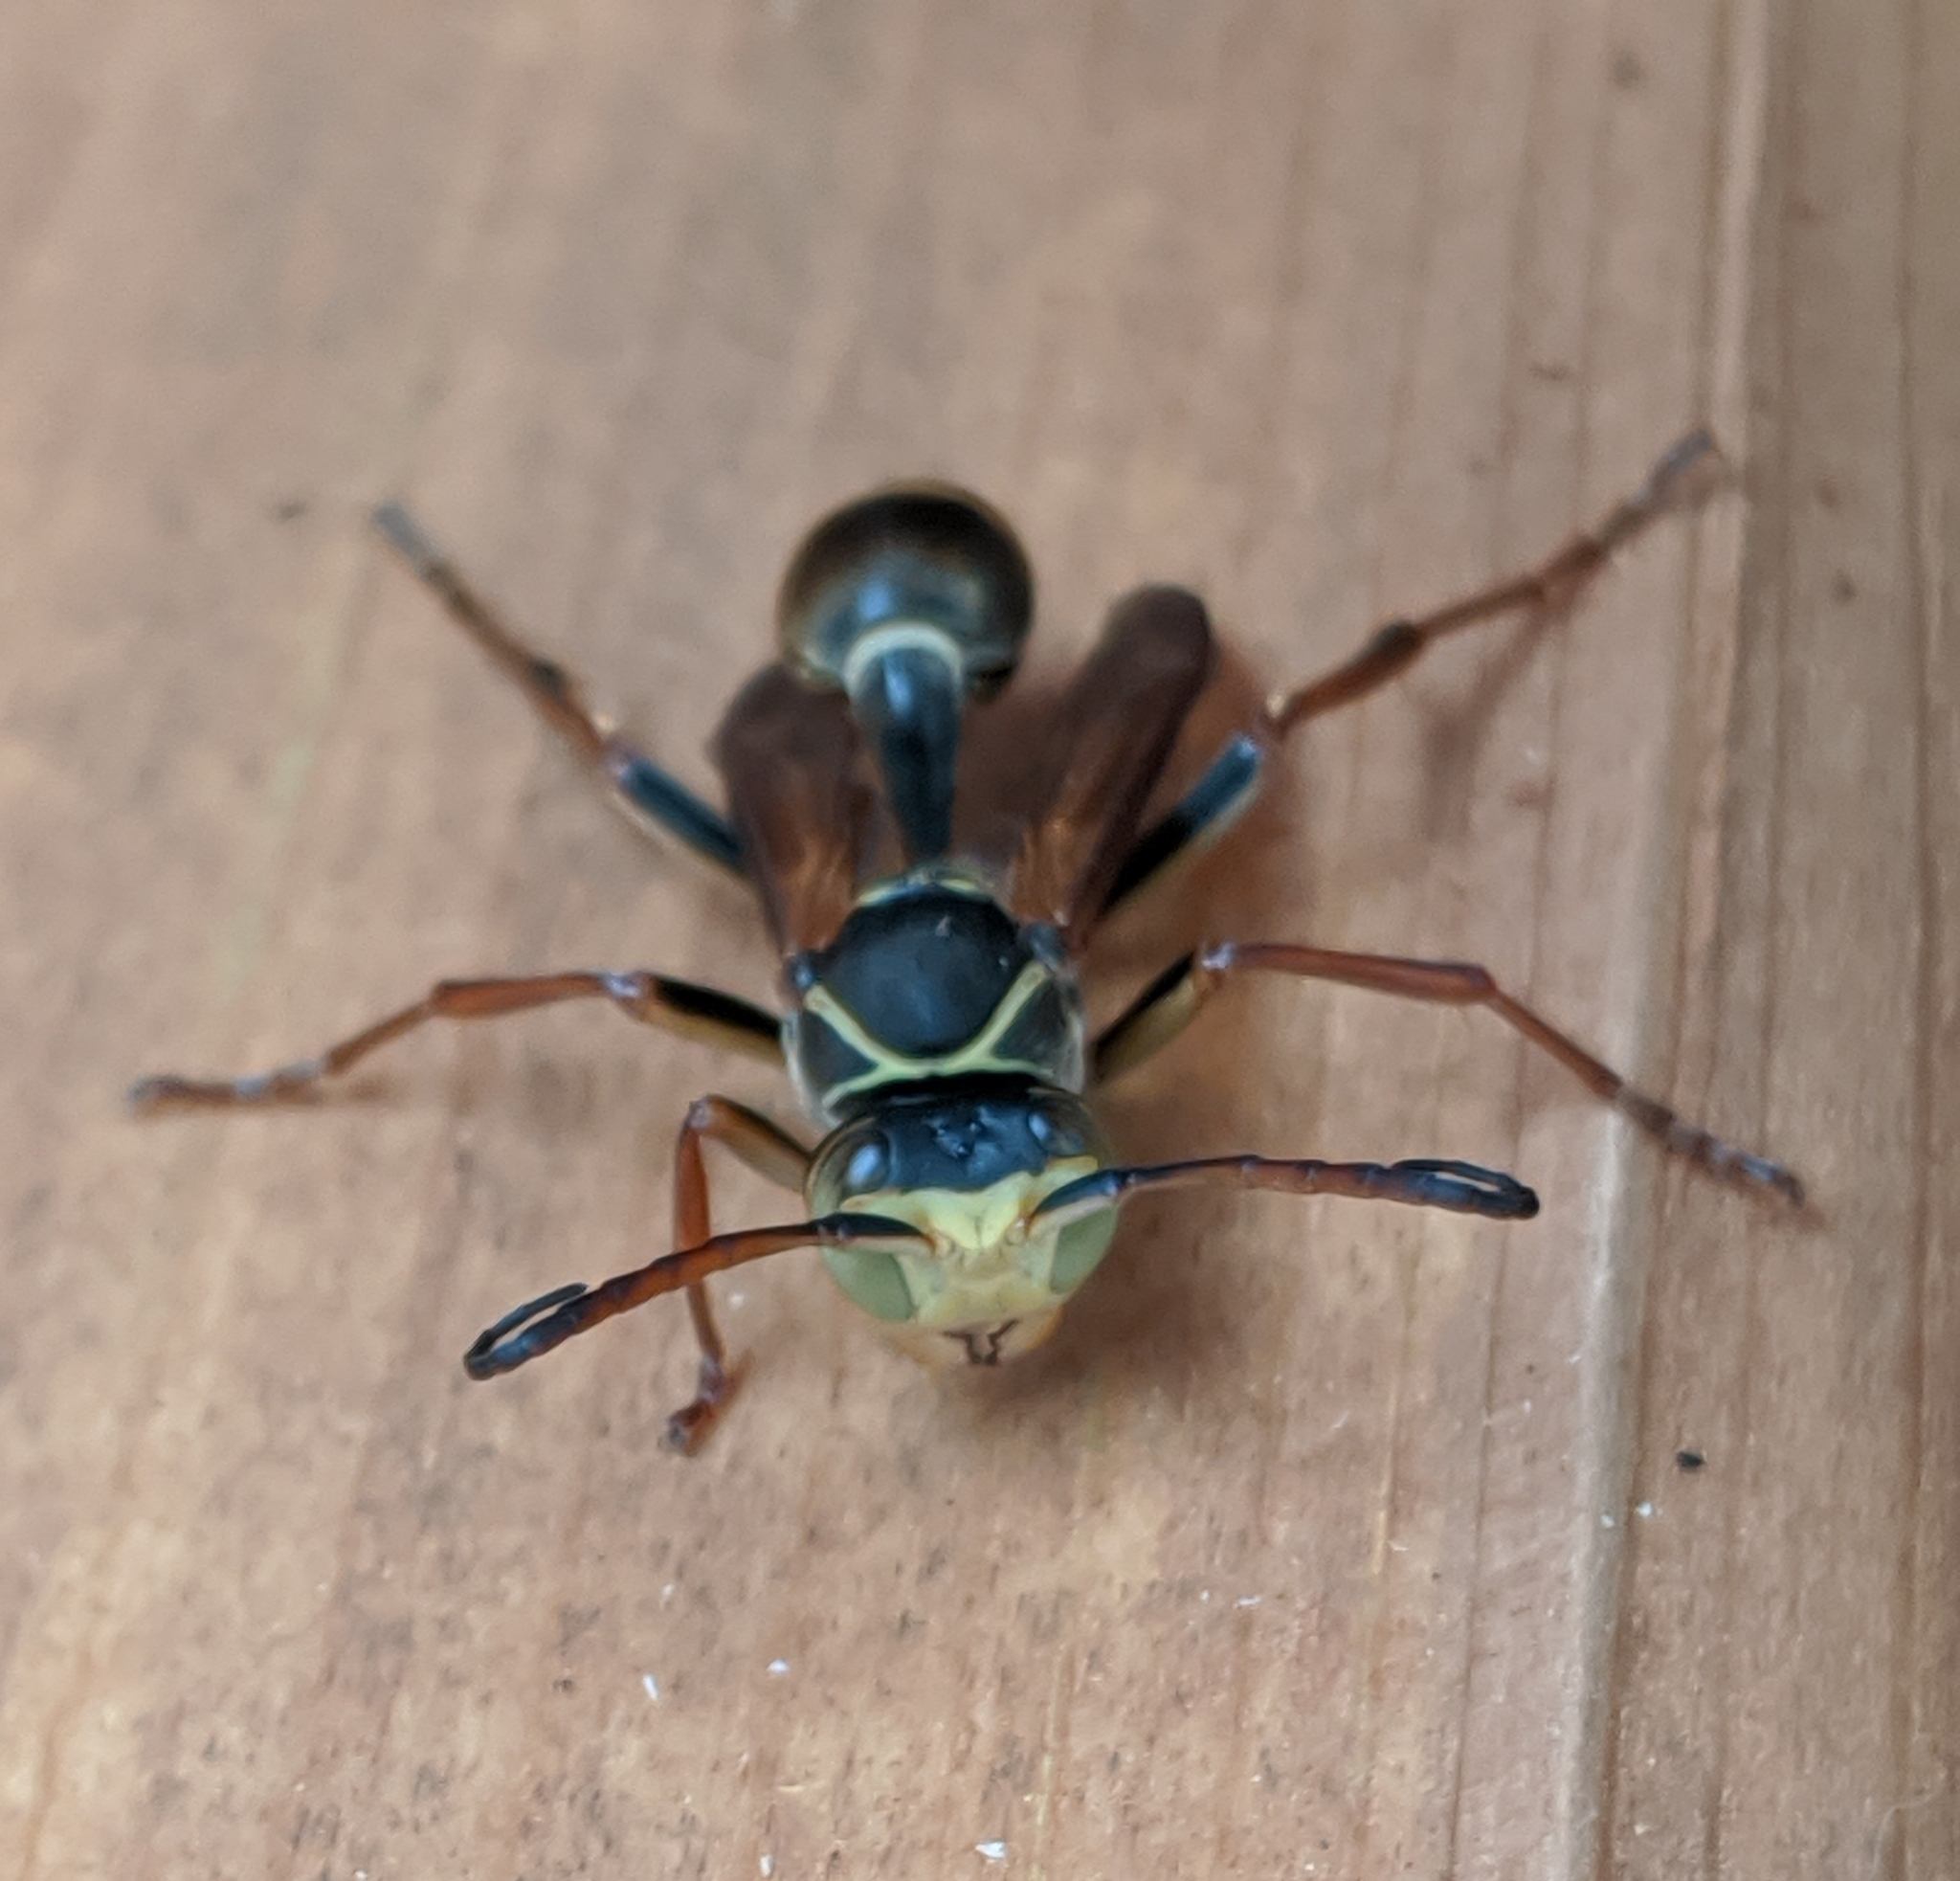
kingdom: Animalia
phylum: Arthropoda
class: Insecta
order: Hymenoptera
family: Vespidae
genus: Mischocyttarus
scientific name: Mischocyttarus flavitarsis
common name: Wasp
